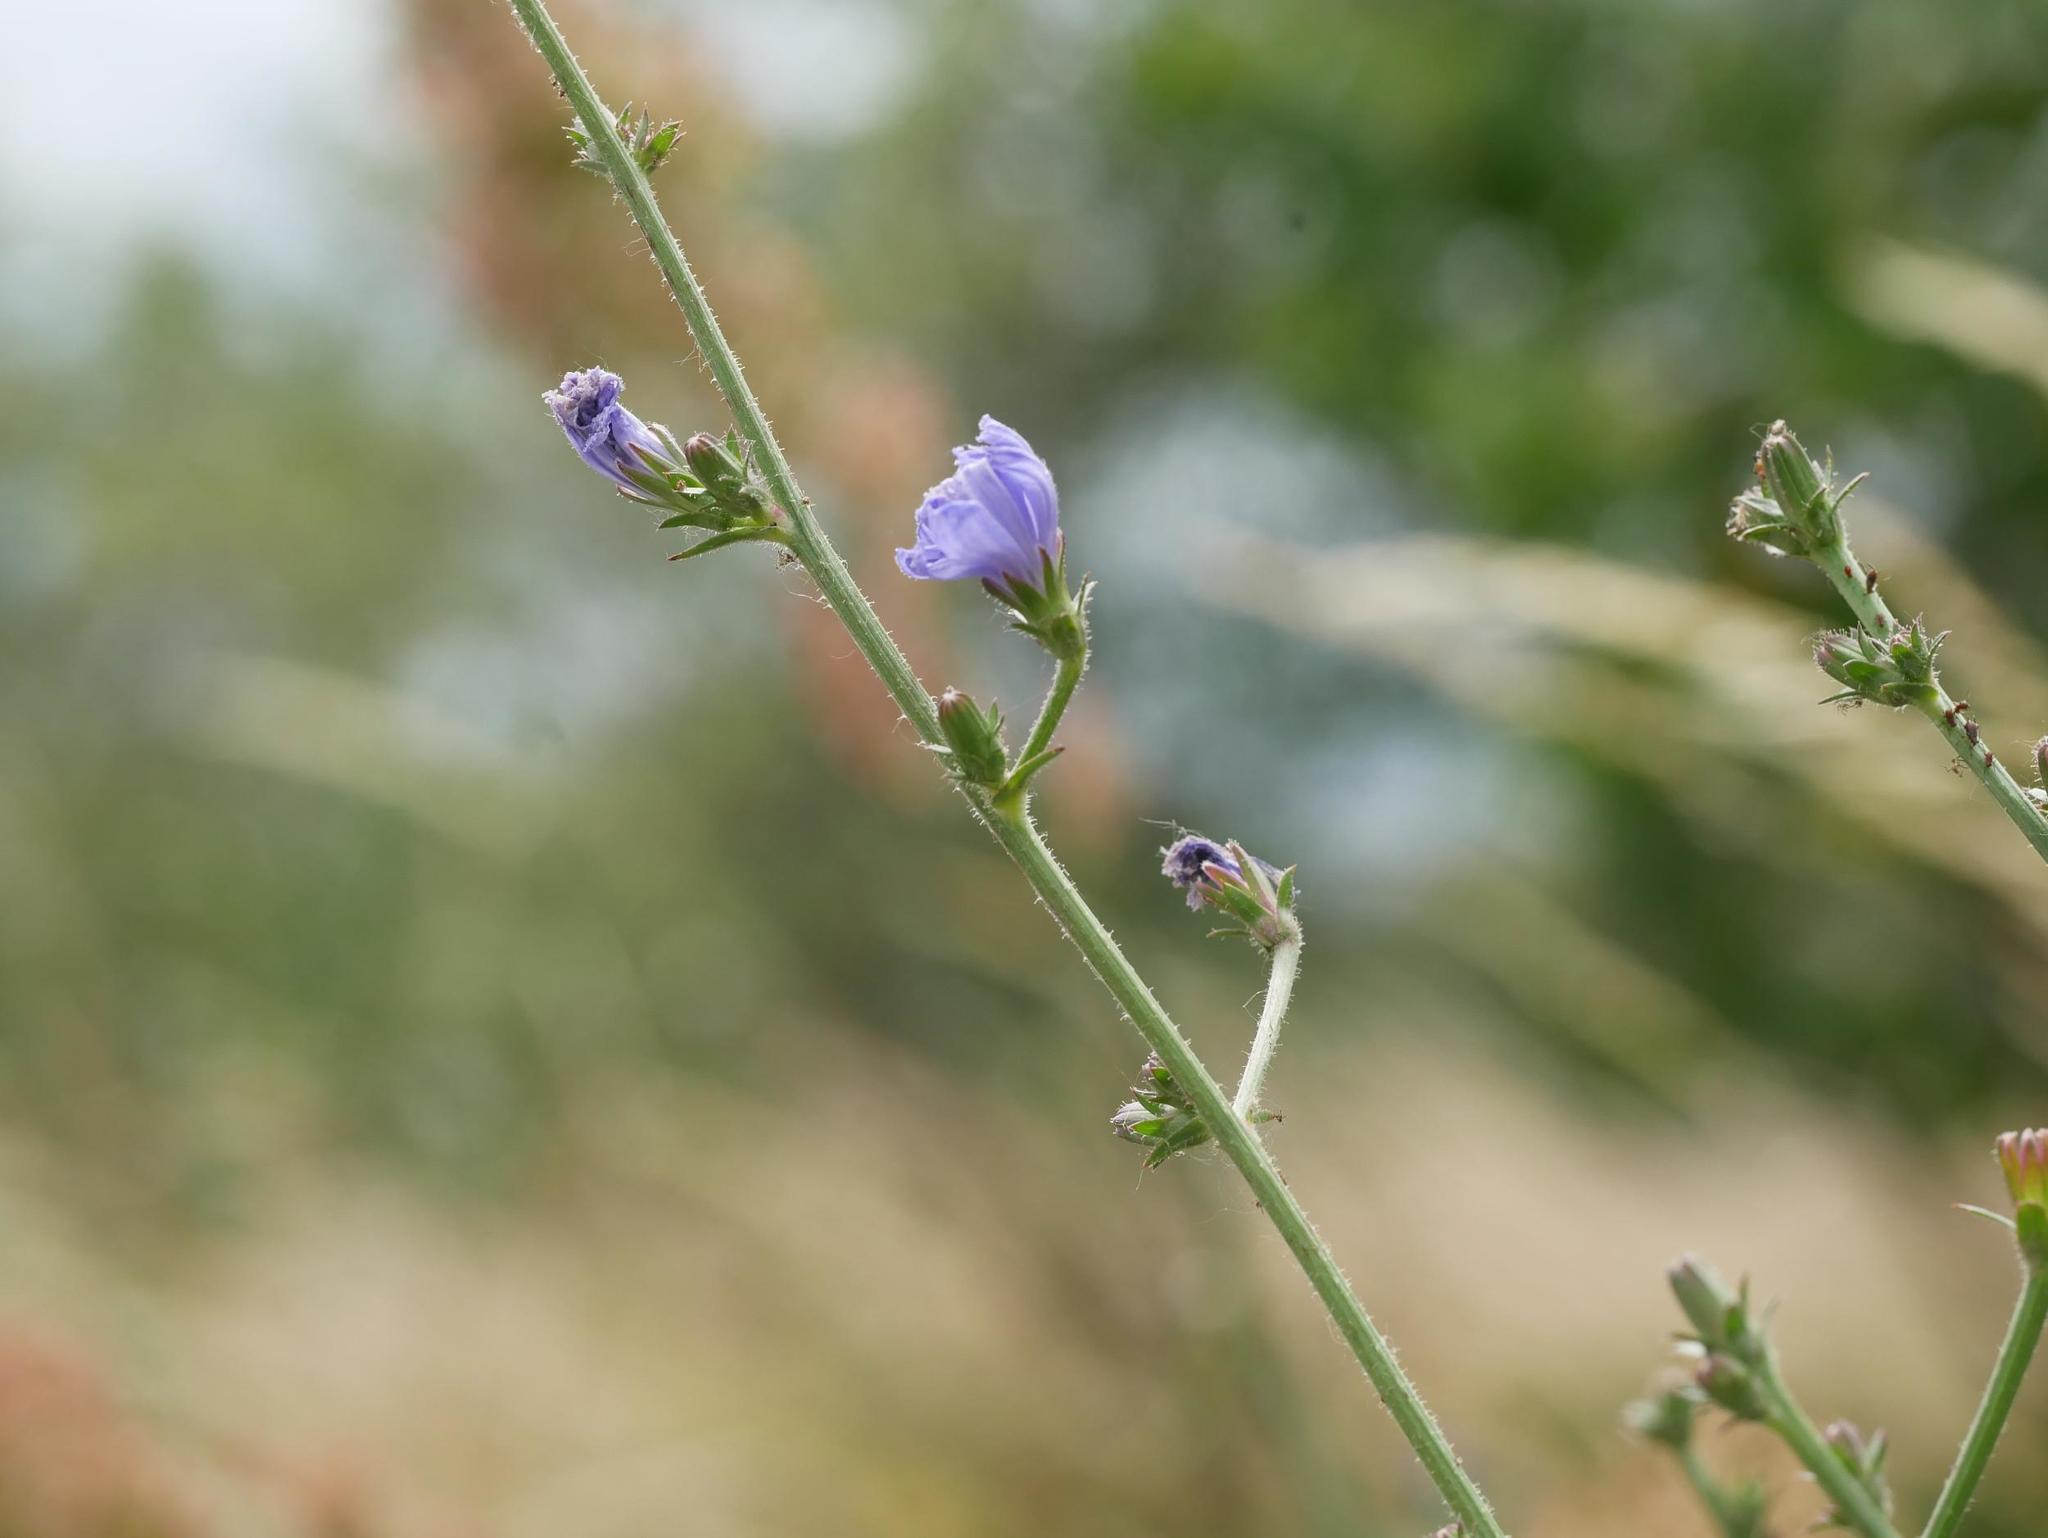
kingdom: Plantae
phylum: Tracheophyta
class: Magnoliopsida
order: Asterales
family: Asteraceae
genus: Cichorium
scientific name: Cichorium intybus
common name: Chicory
